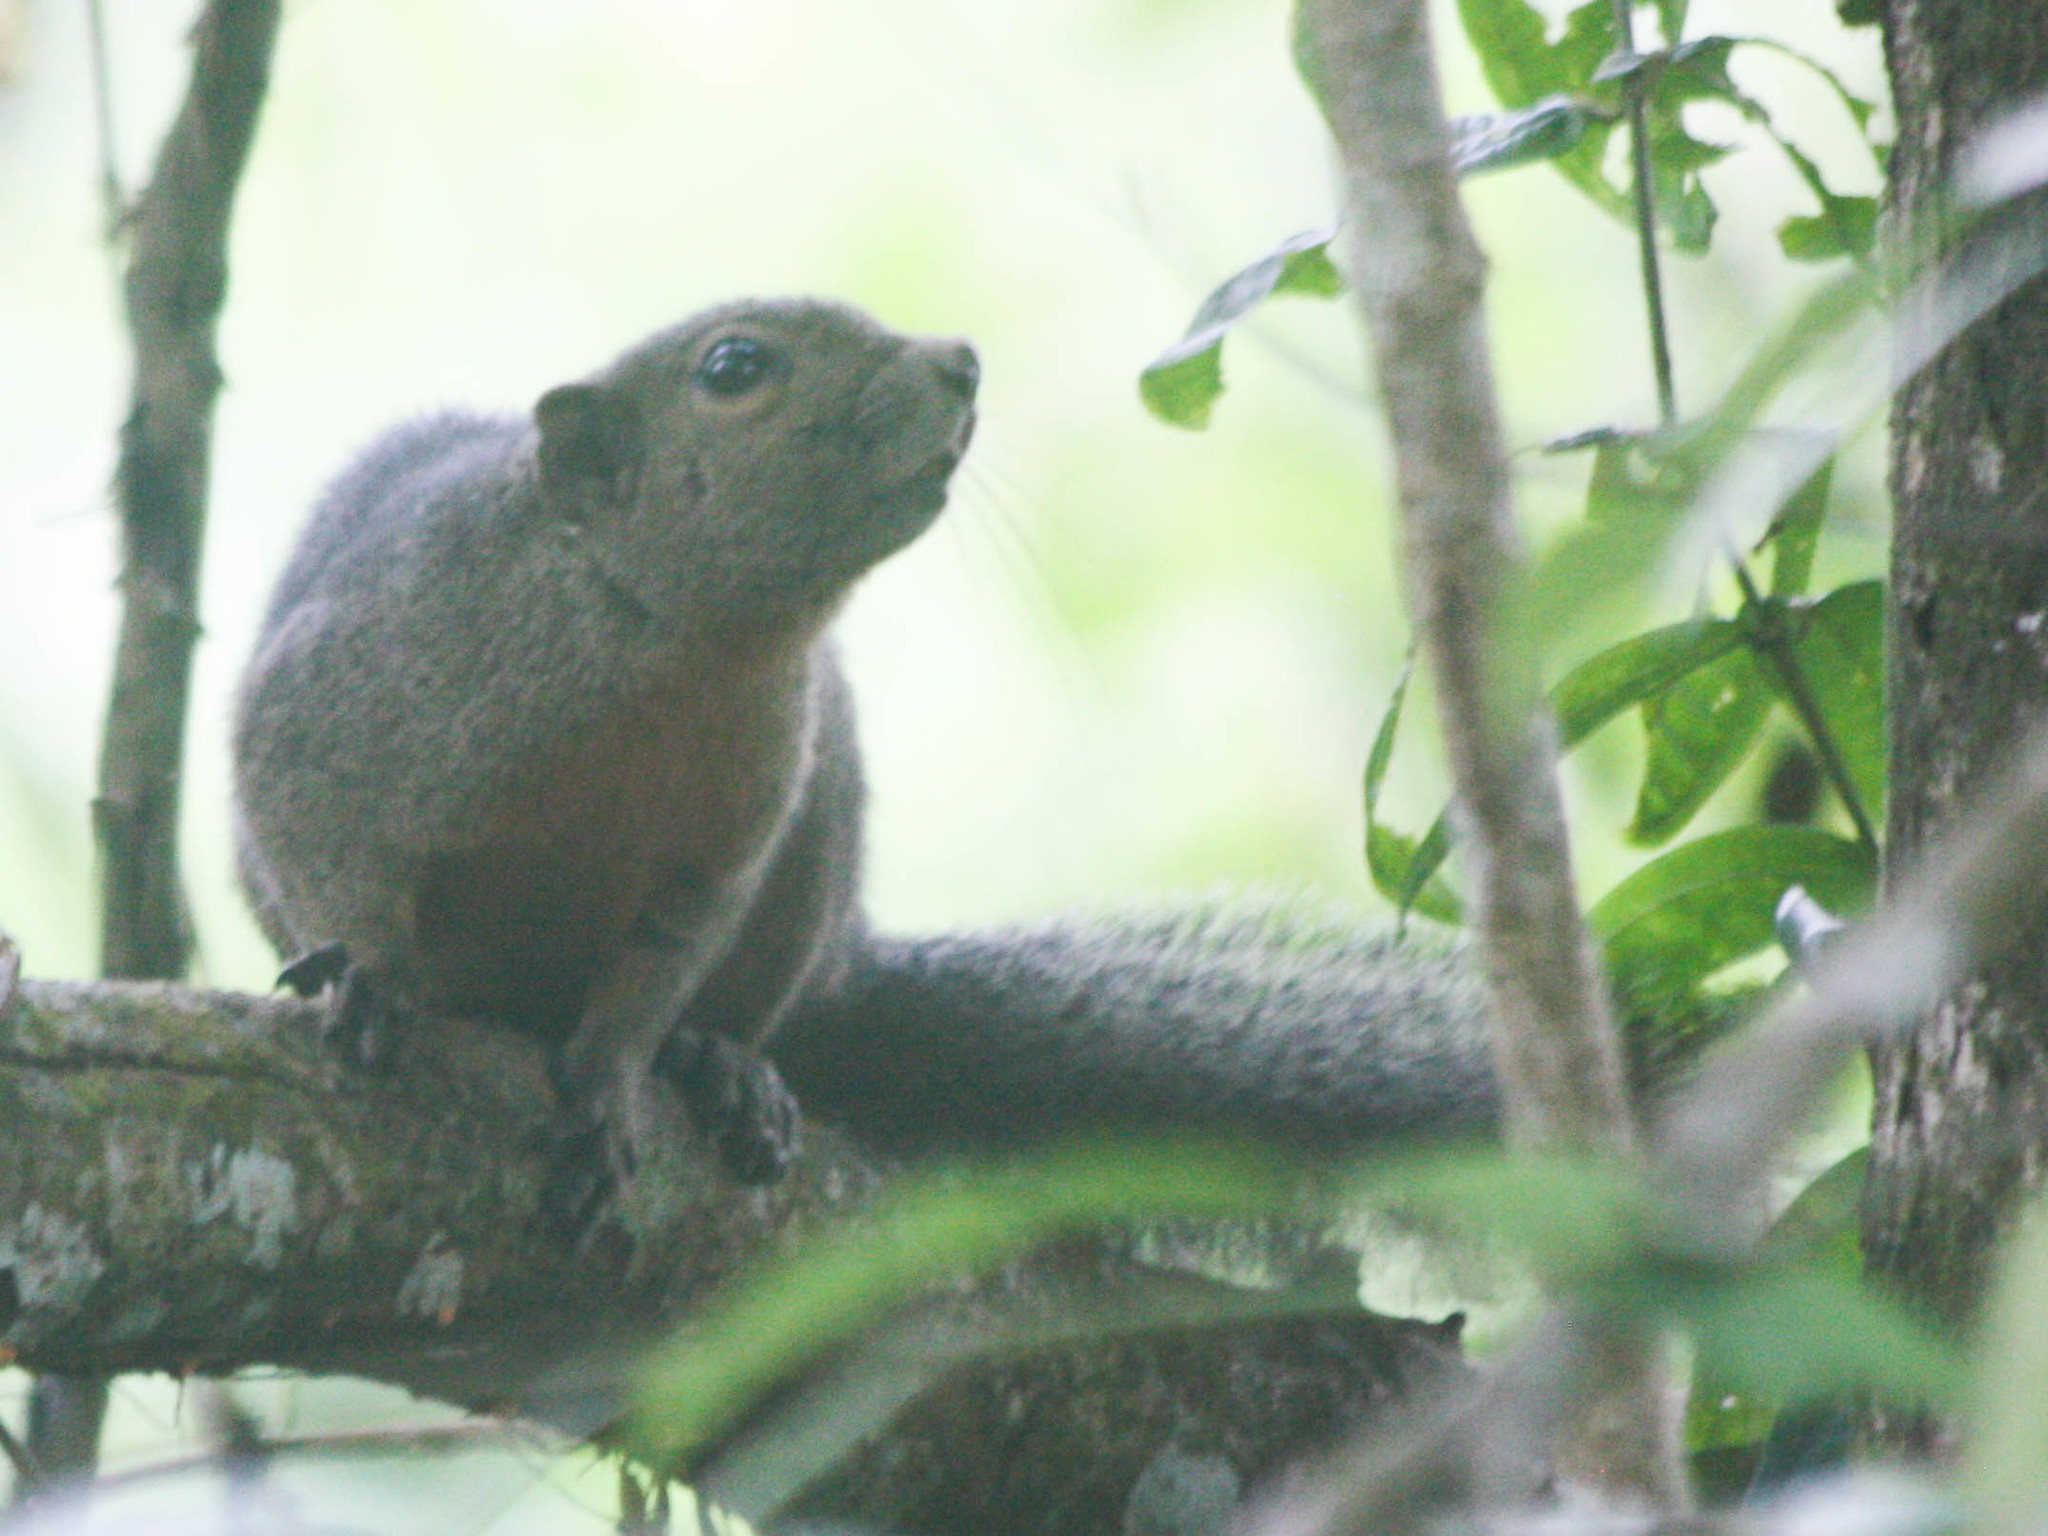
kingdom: Animalia
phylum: Chordata
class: Mammalia
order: Rodentia
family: Sciuridae
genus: Callosciurus
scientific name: Callosciurus notatus
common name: Plantain squirrel
